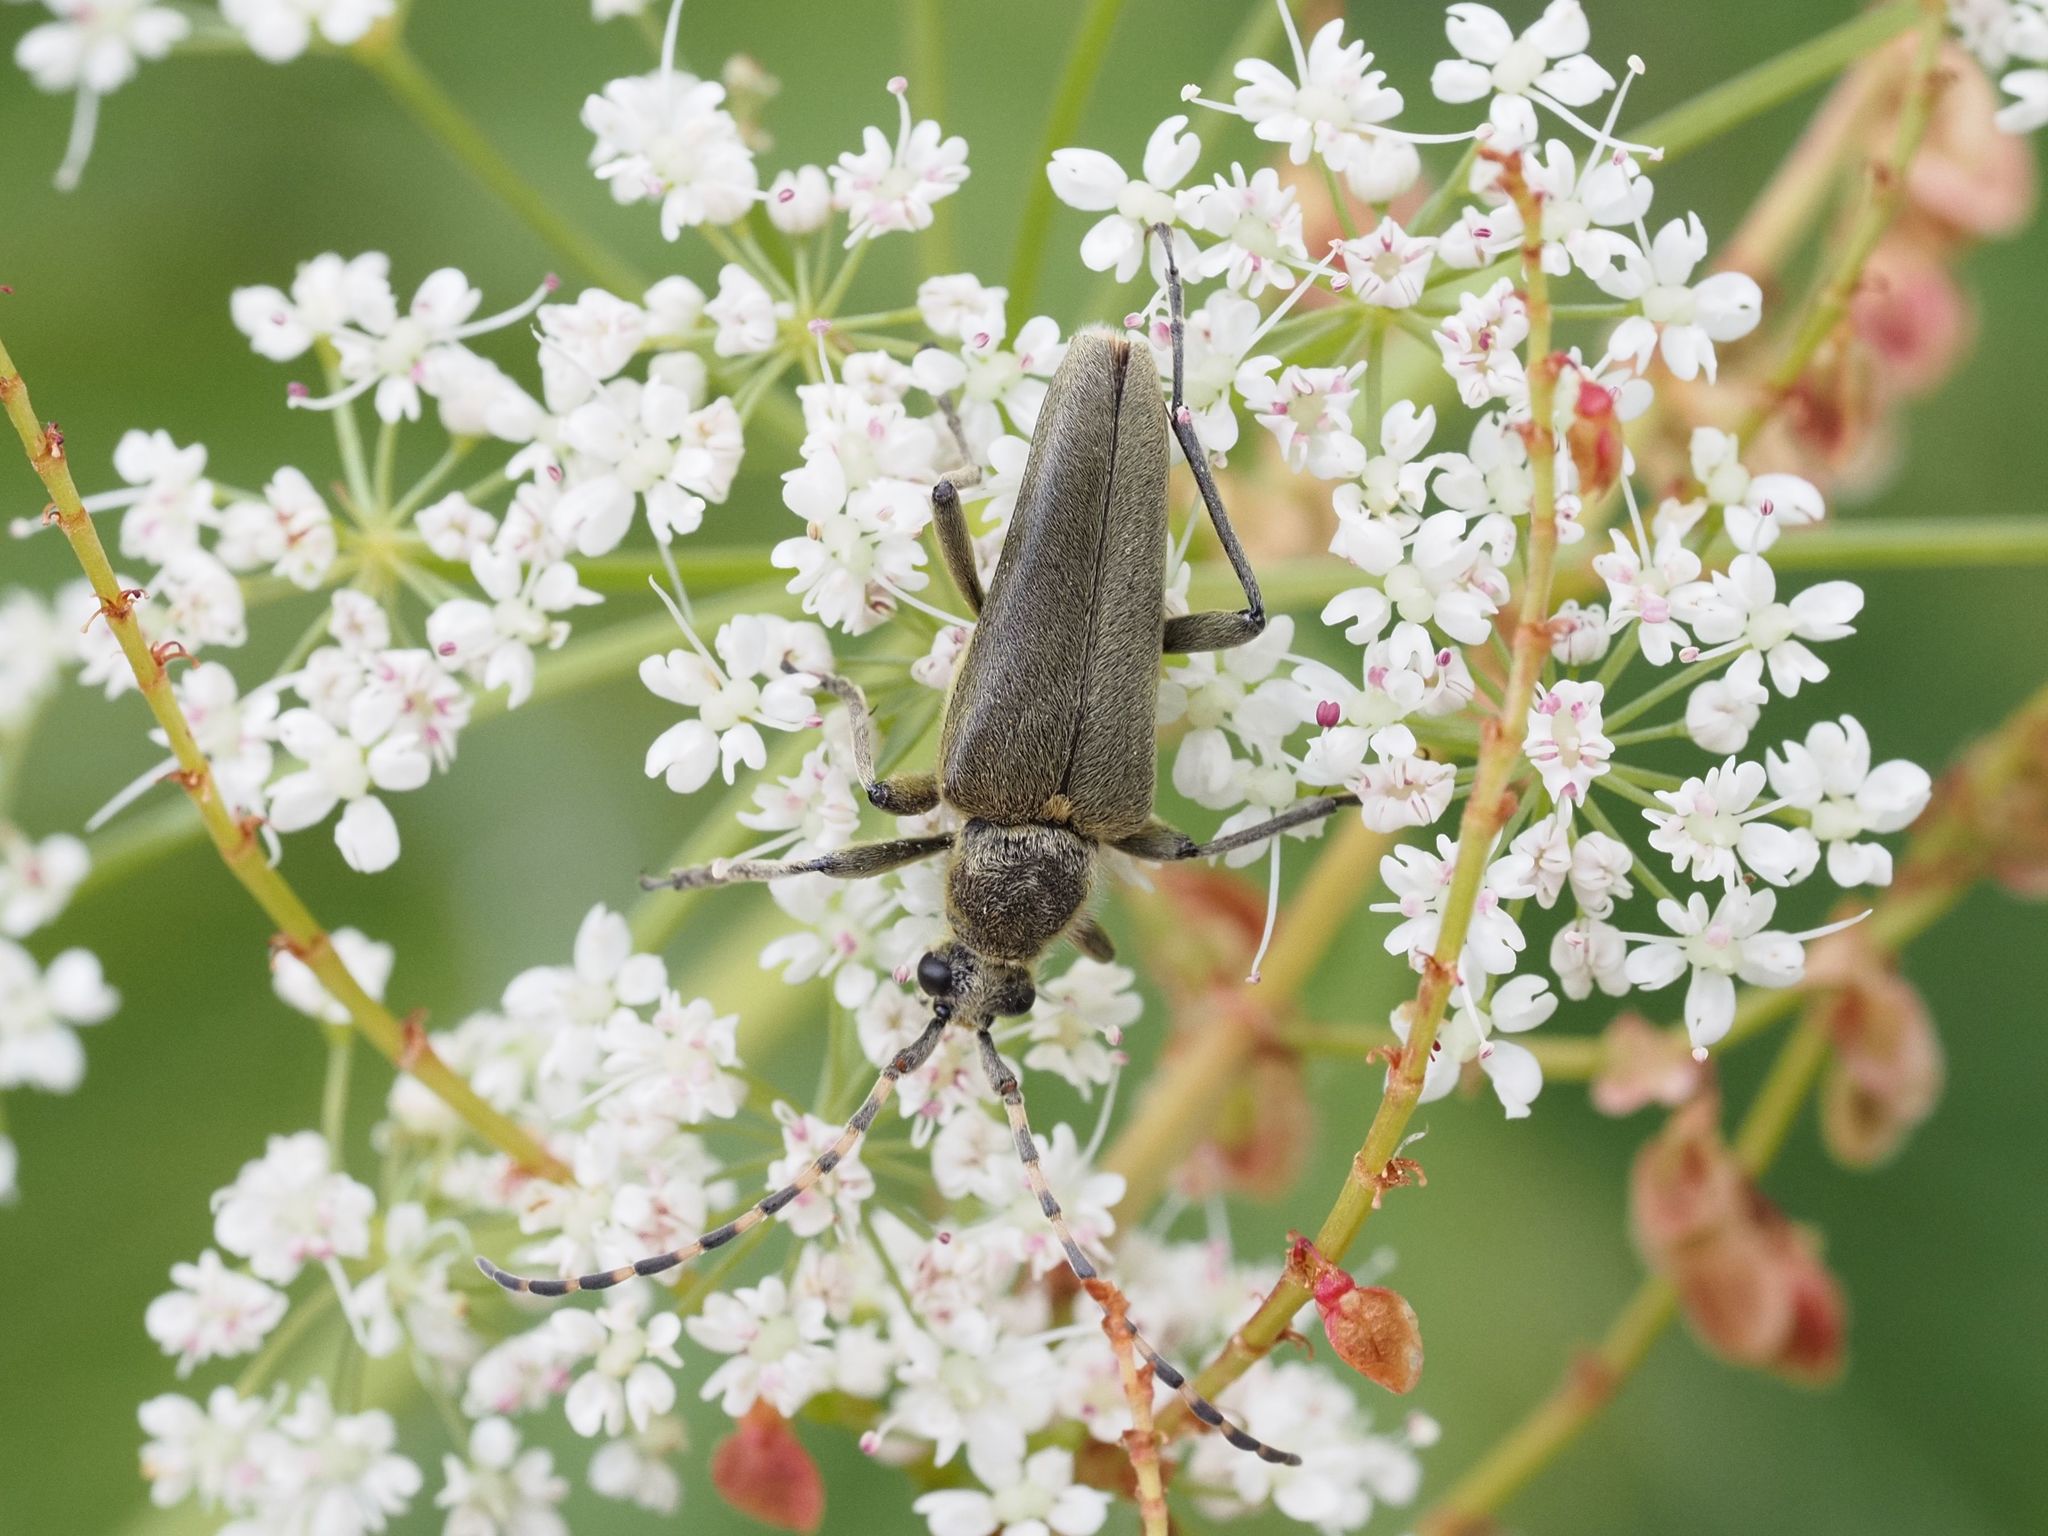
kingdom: Animalia
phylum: Arthropoda
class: Insecta
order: Coleoptera
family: Cerambycidae
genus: Lepturobosca
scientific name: Lepturobosca virens
